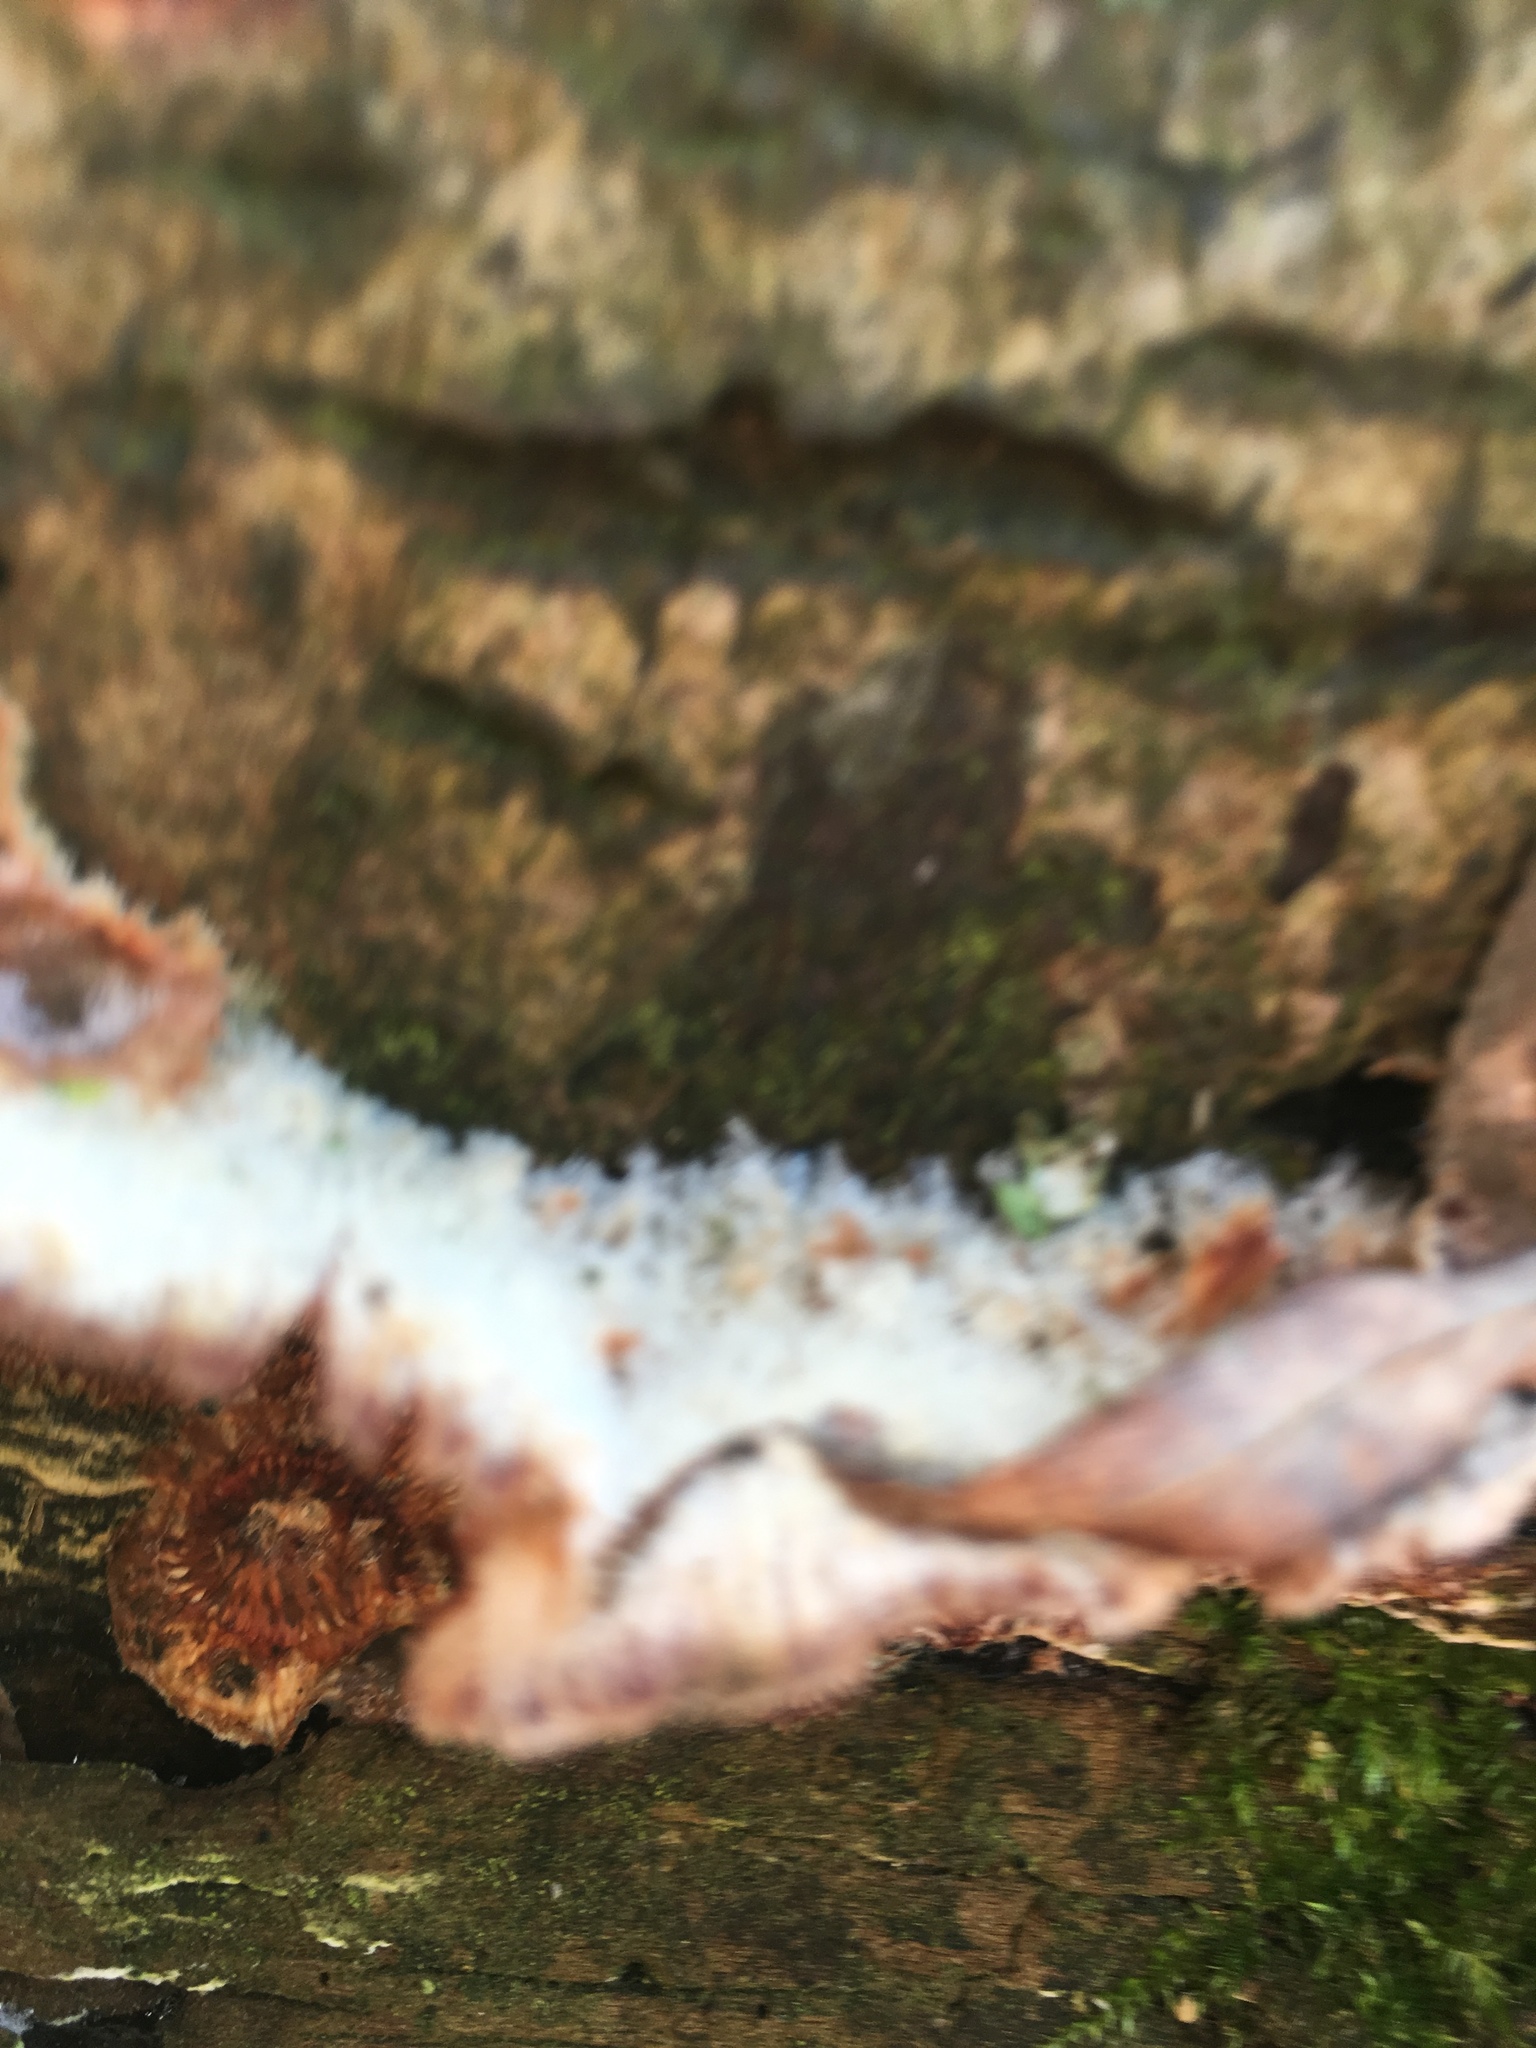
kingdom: Fungi
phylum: Basidiomycota
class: Agaricomycetes
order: Polyporales
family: Meruliaceae
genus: Phlebia
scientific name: Phlebia tremellosa
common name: Jelly rot
